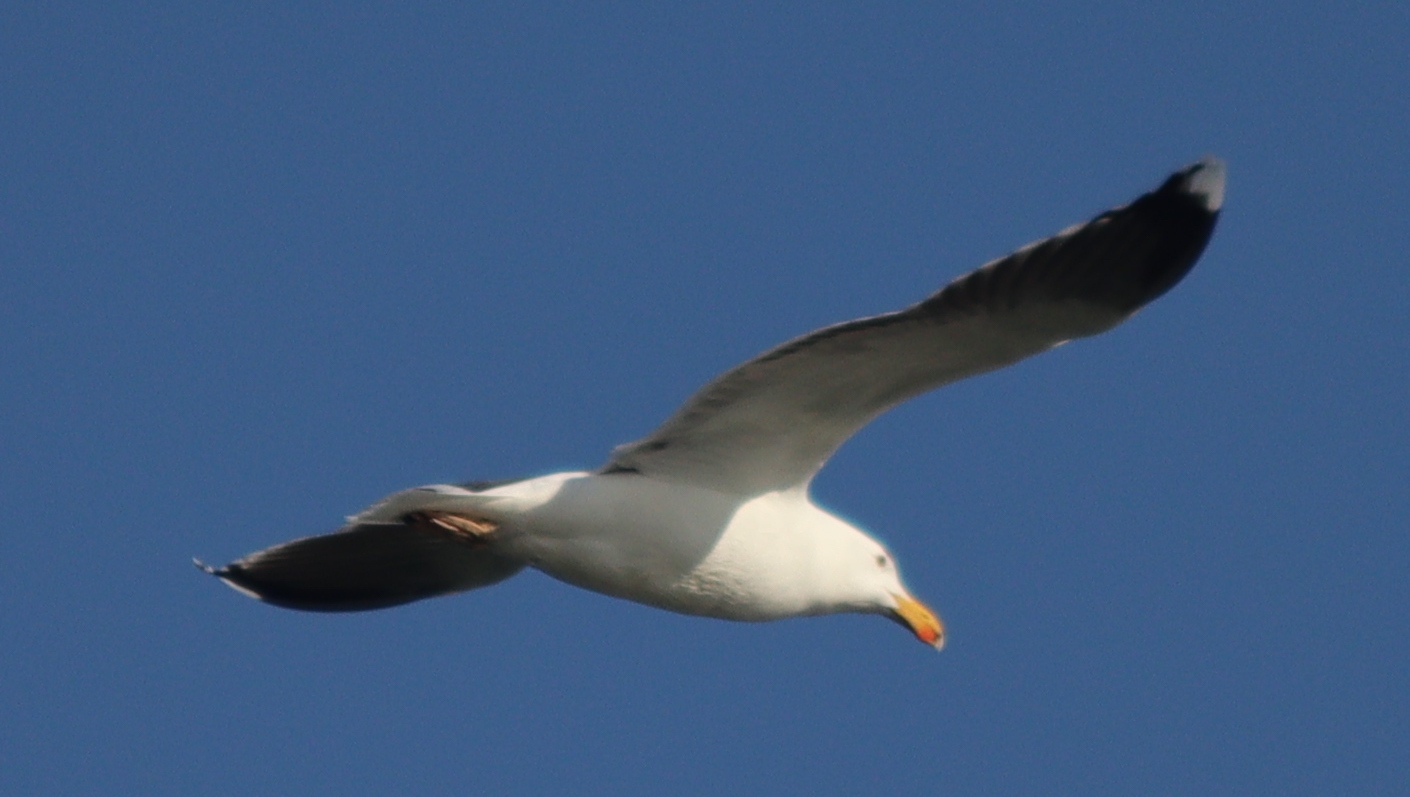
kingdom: Animalia
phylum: Chordata
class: Aves
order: Charadriiformes
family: Laridae
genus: Larus
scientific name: Larus marinus
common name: Great black-backed gull
